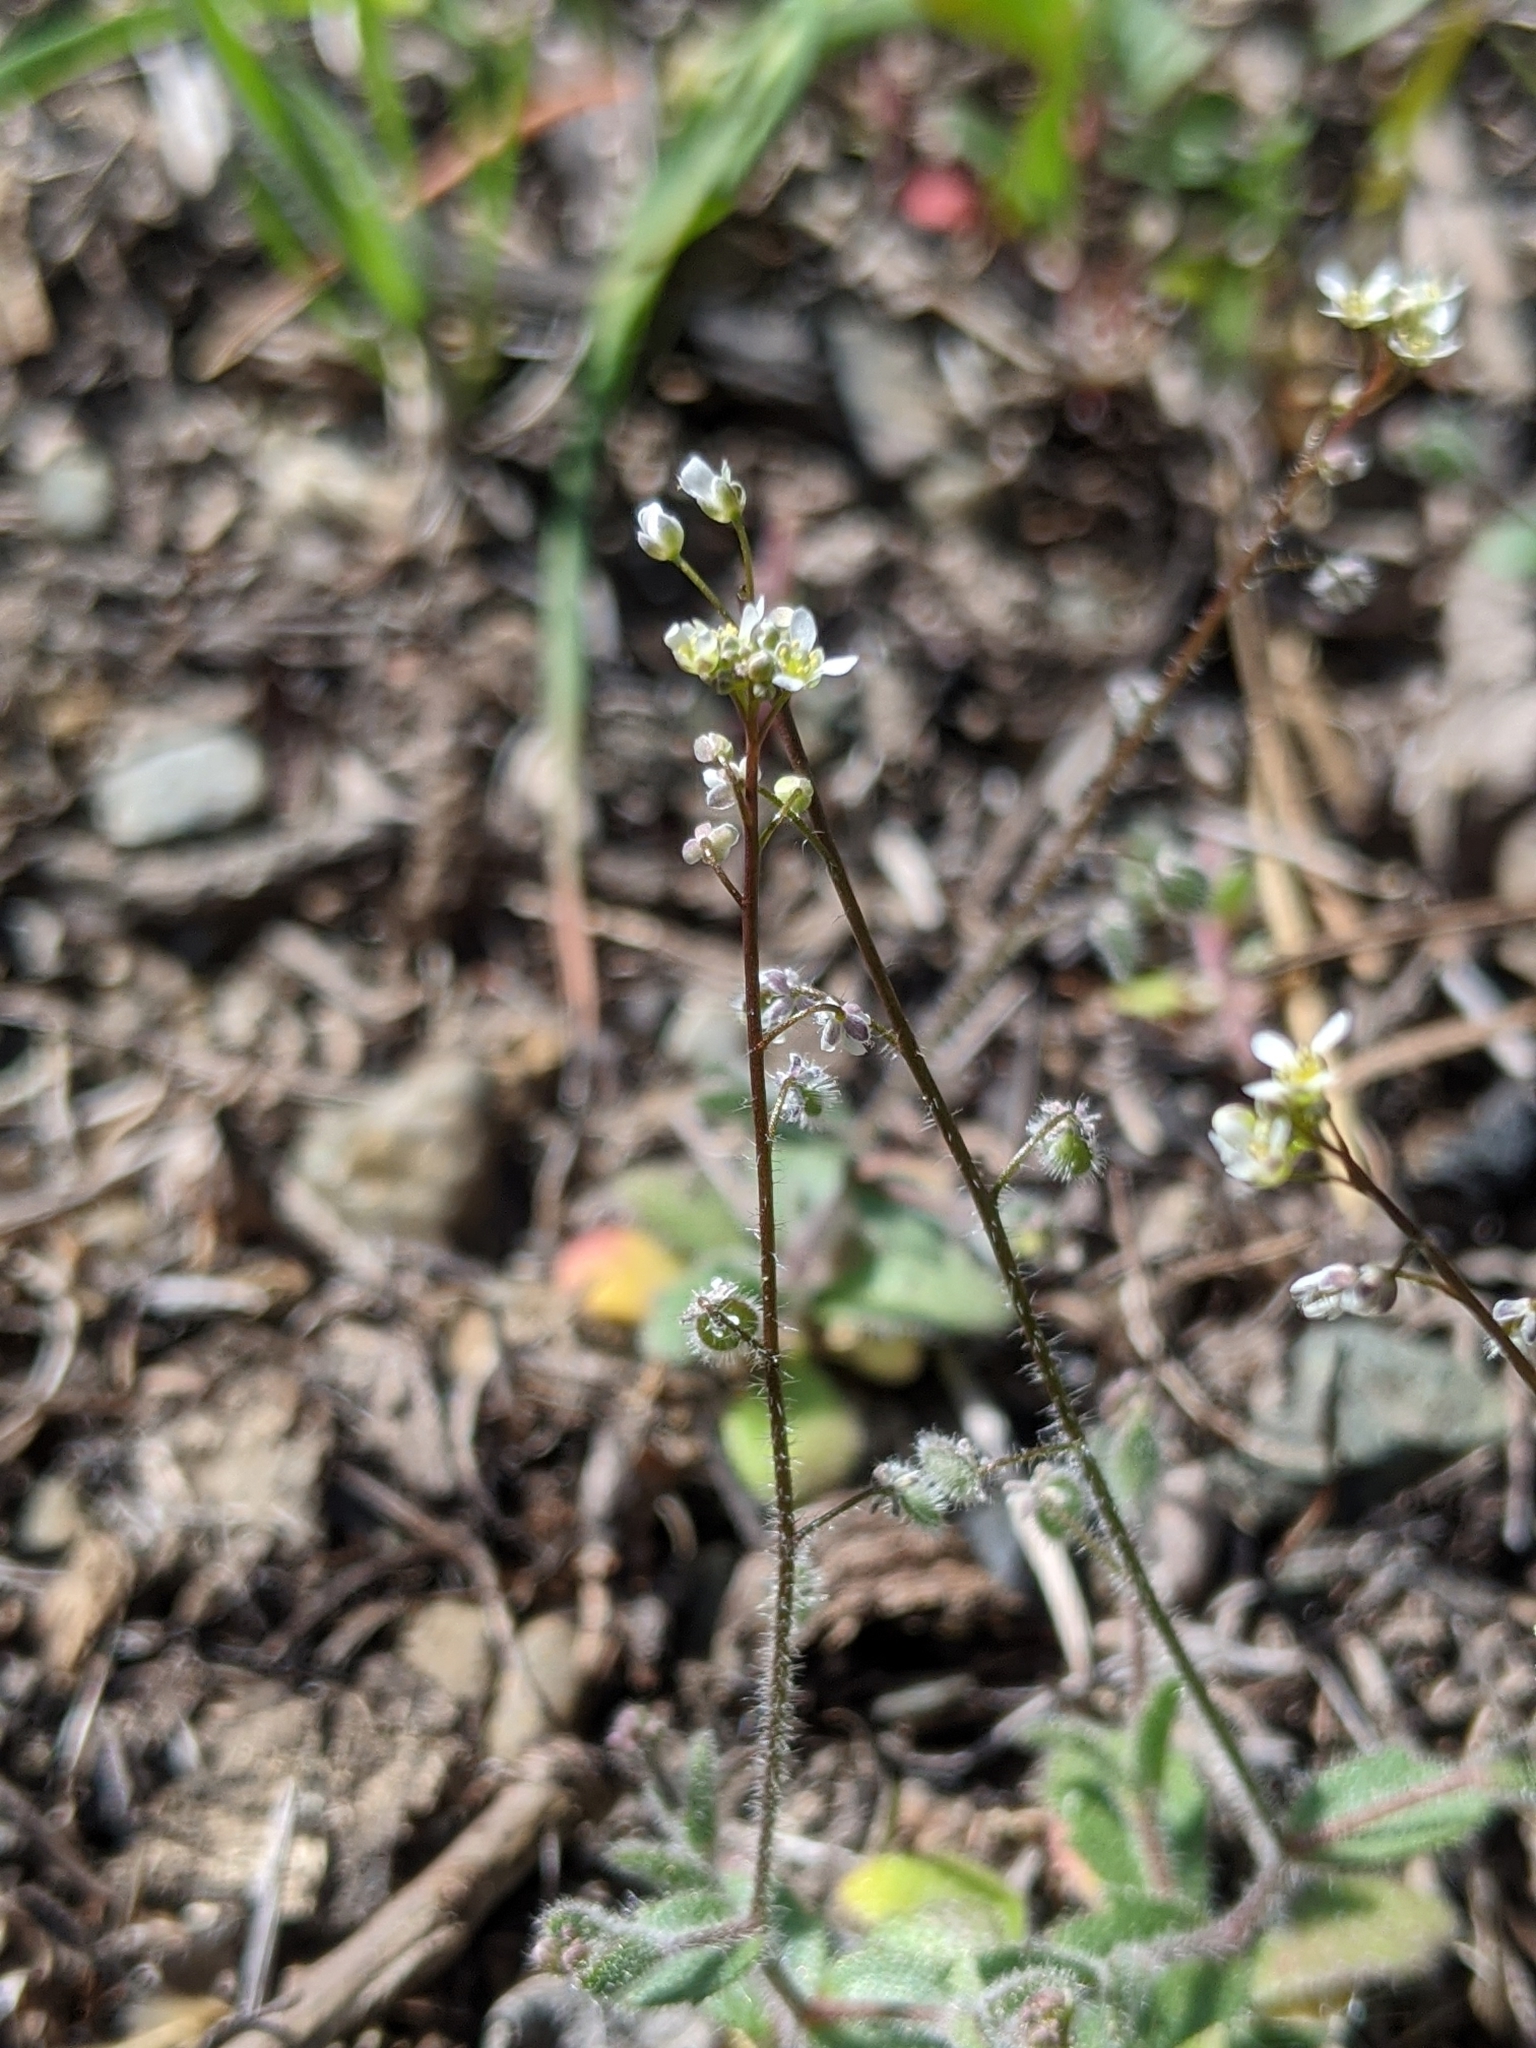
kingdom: Plantae
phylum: Tracheophyta
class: Magnoliopsida
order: Brassicales
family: Brassicaceae
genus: Athysanus
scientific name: Athysanus pusillus
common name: Common sandweed
